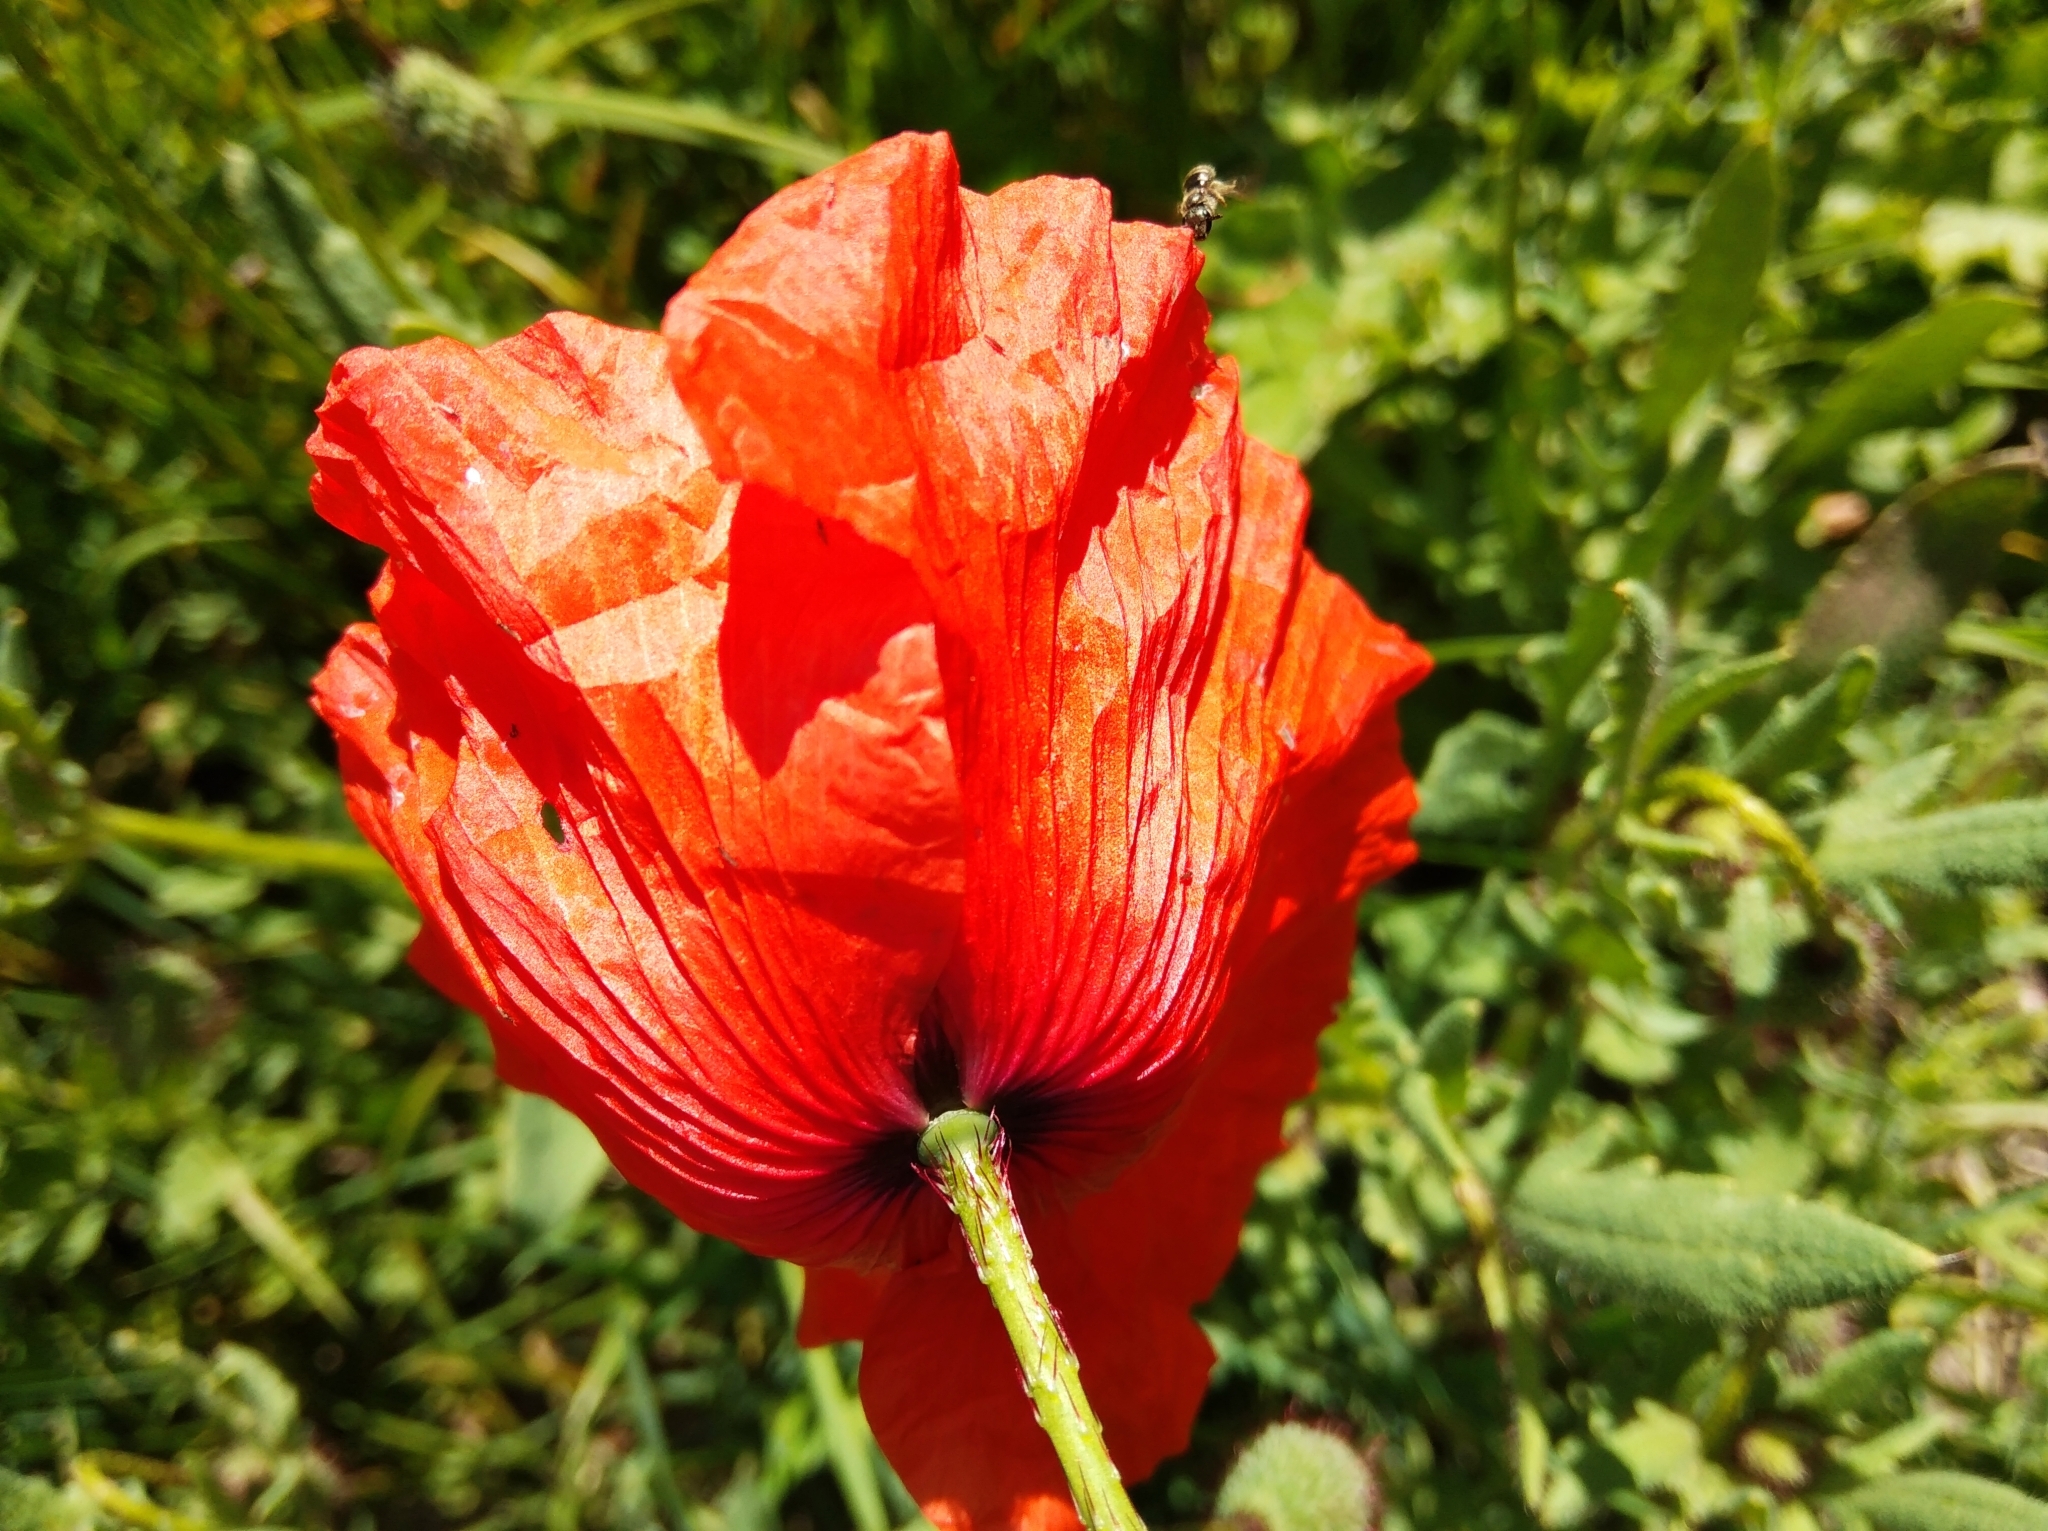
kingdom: Plantae
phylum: Tracheophyta
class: Magnoliopsida
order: Ranunculales
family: Papaveraceae
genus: Papaver
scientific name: Papaver rhoeas
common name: Corn poppy
